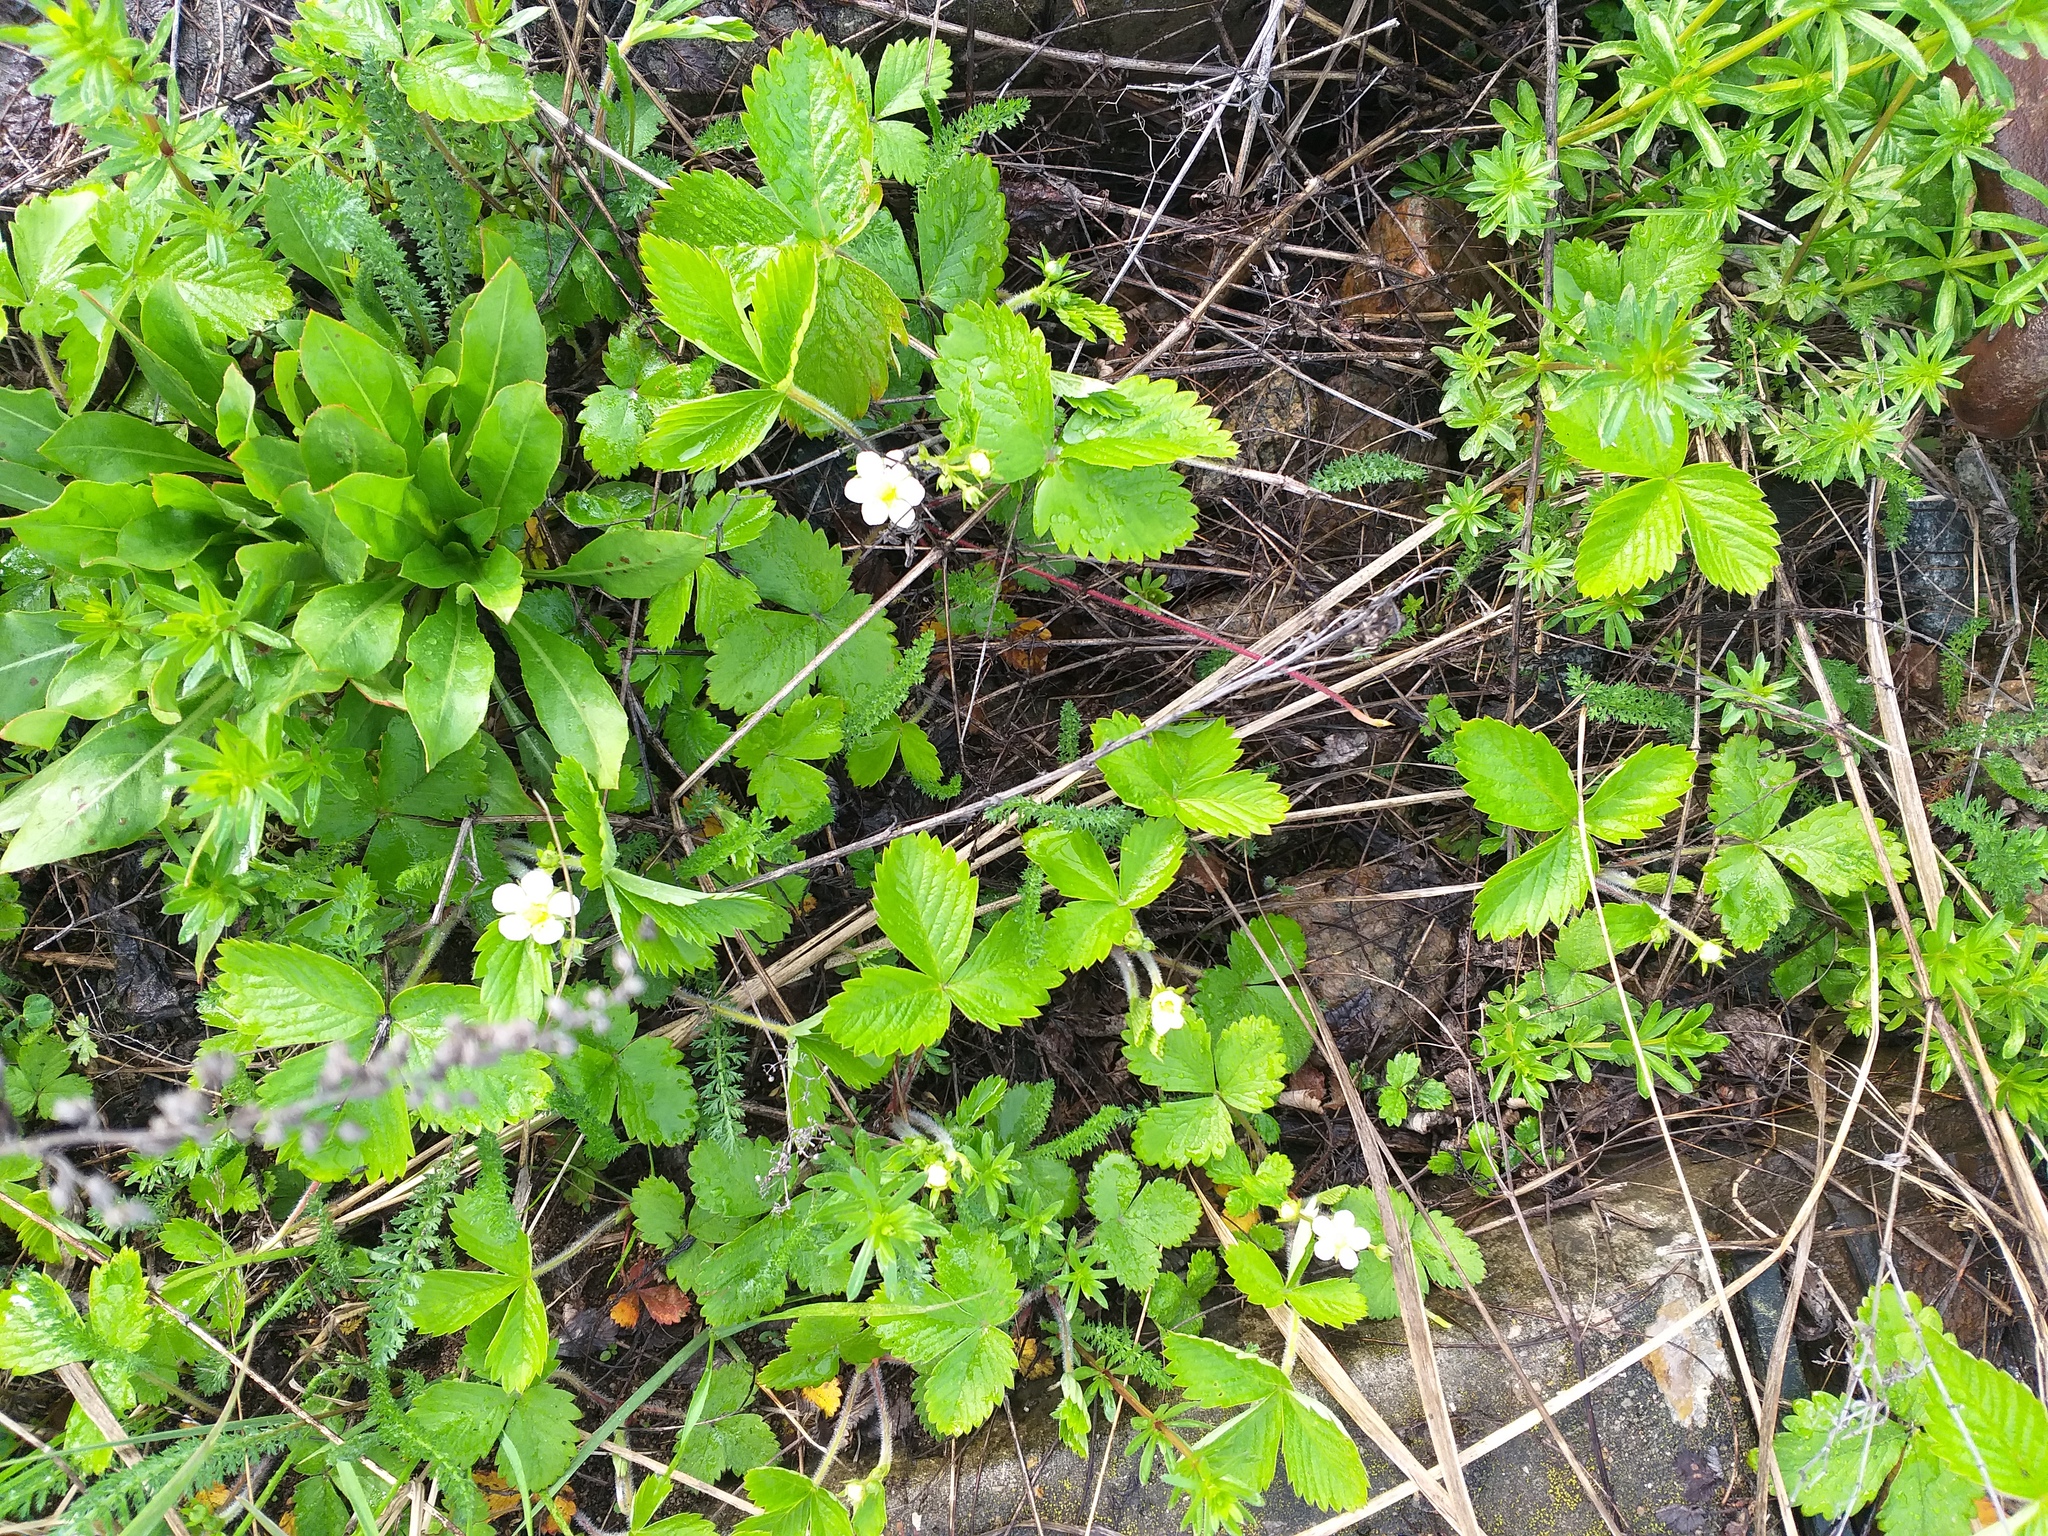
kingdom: Plantae
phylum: Tracheophyta
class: Magnoliopsida
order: Rosales
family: Rosaceae
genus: Fragaria
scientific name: Fragaria vesca
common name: Wild strawberry
